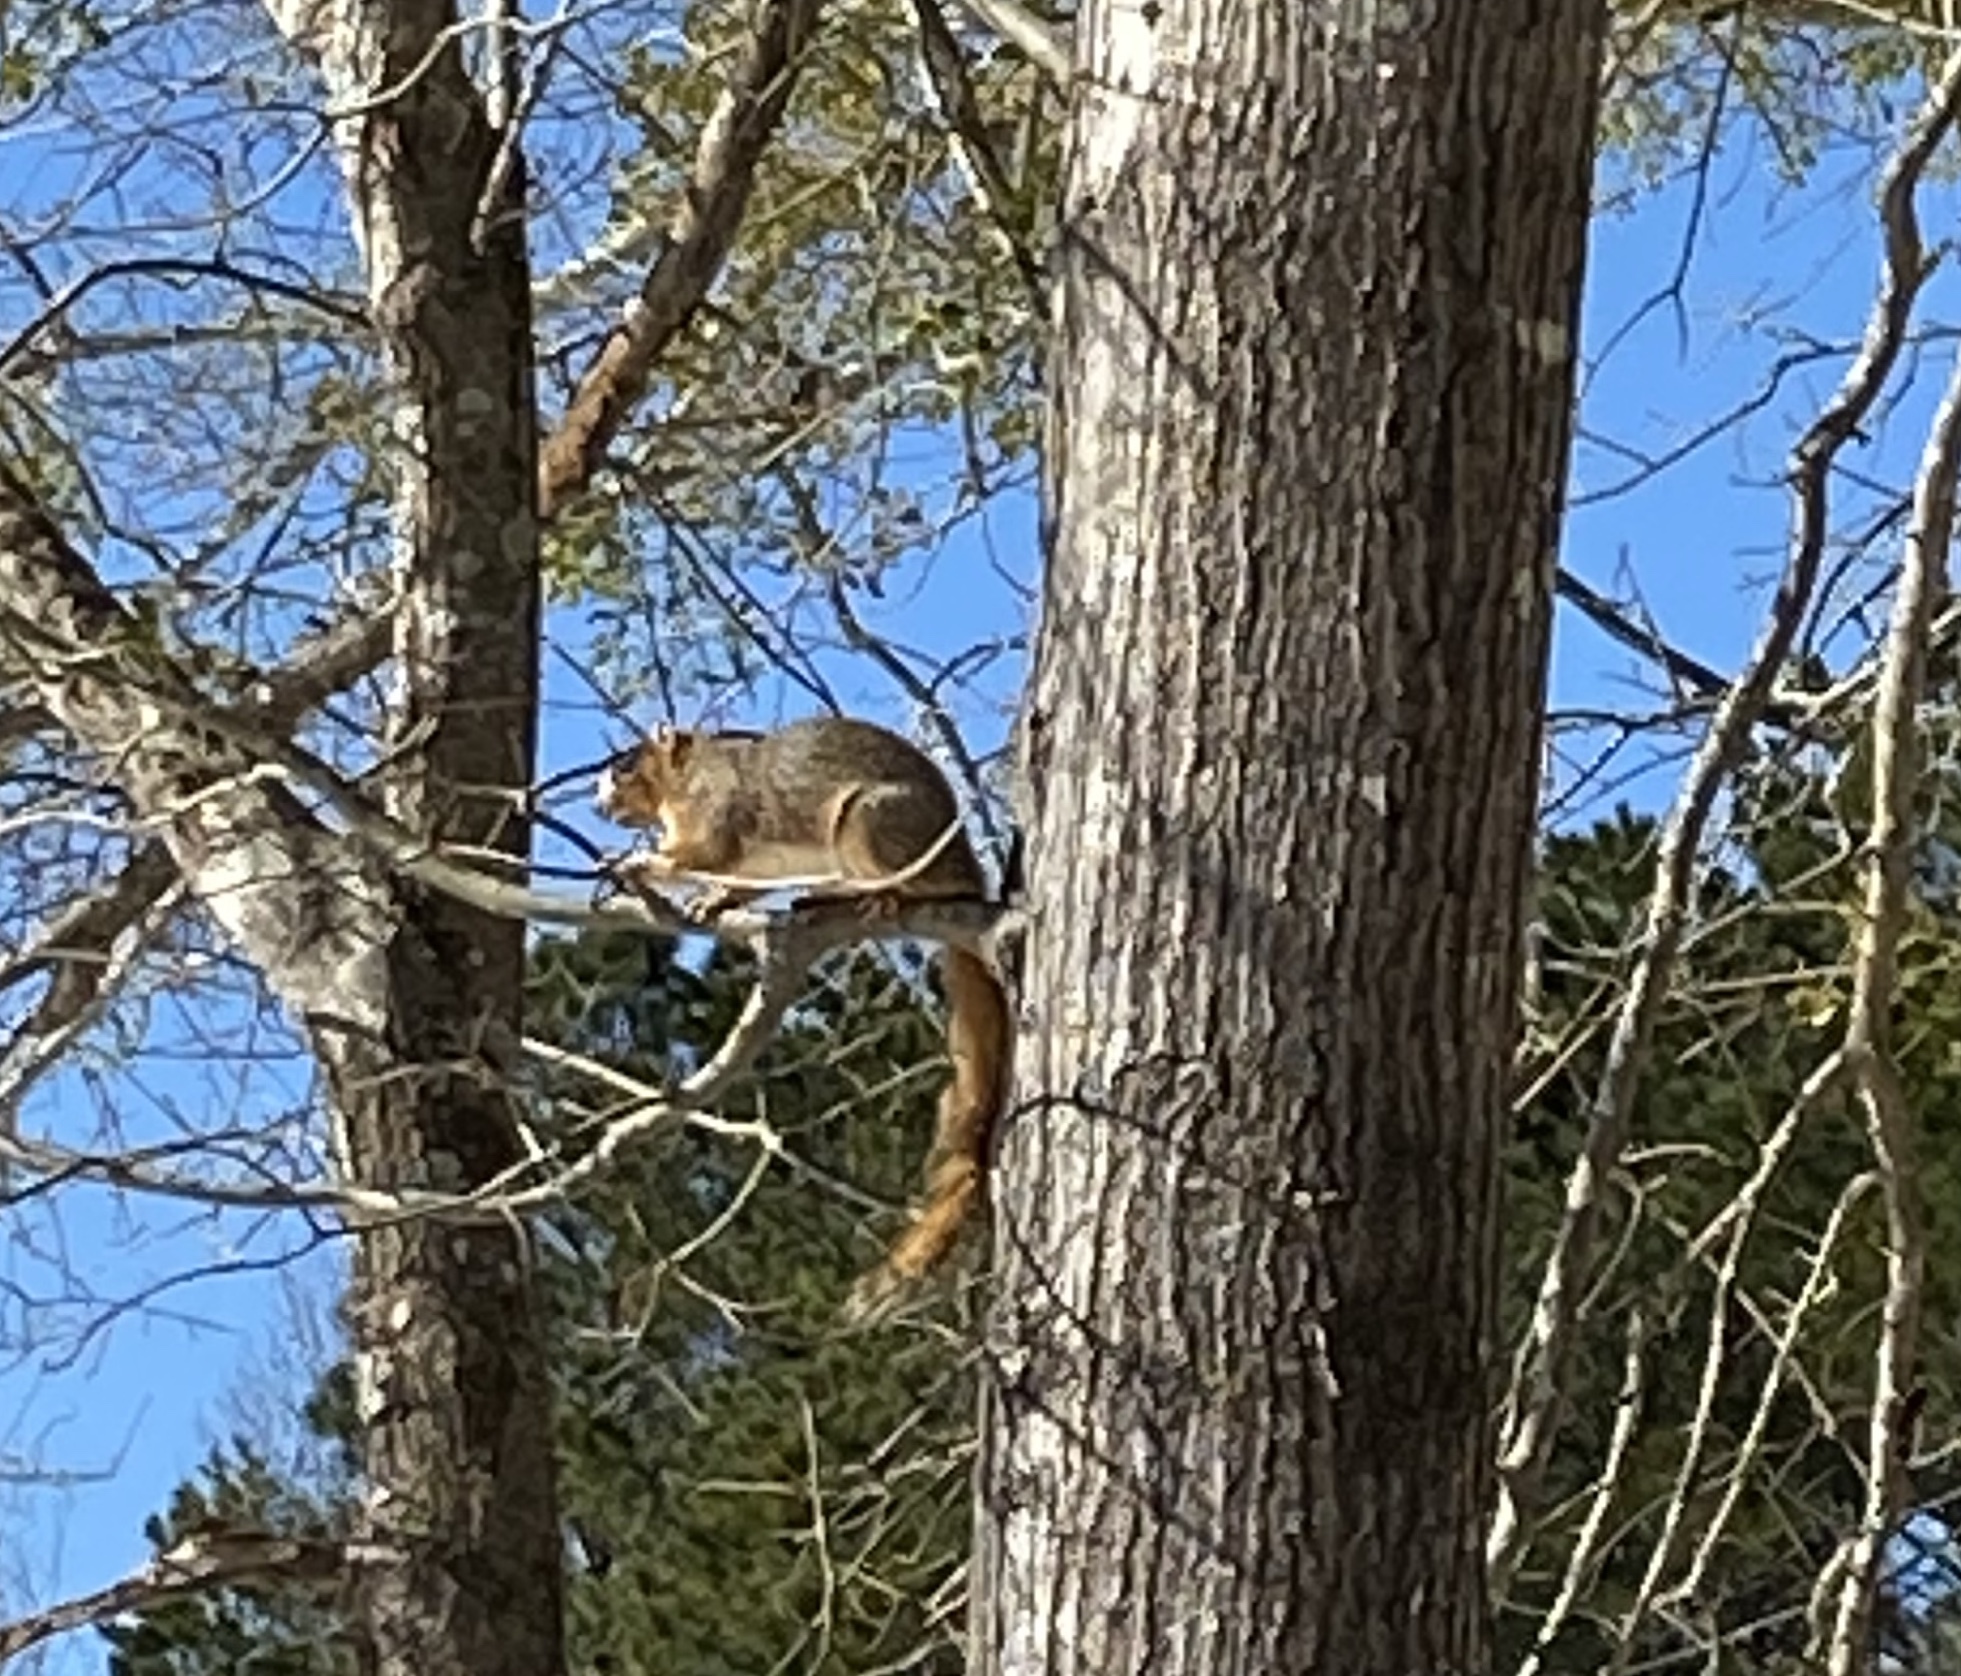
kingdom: Animalia
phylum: Chordata
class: Mammalia
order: Rodentia
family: Sciuridae
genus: Sciurus
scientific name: Sciurus niger
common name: Fox squirrel
